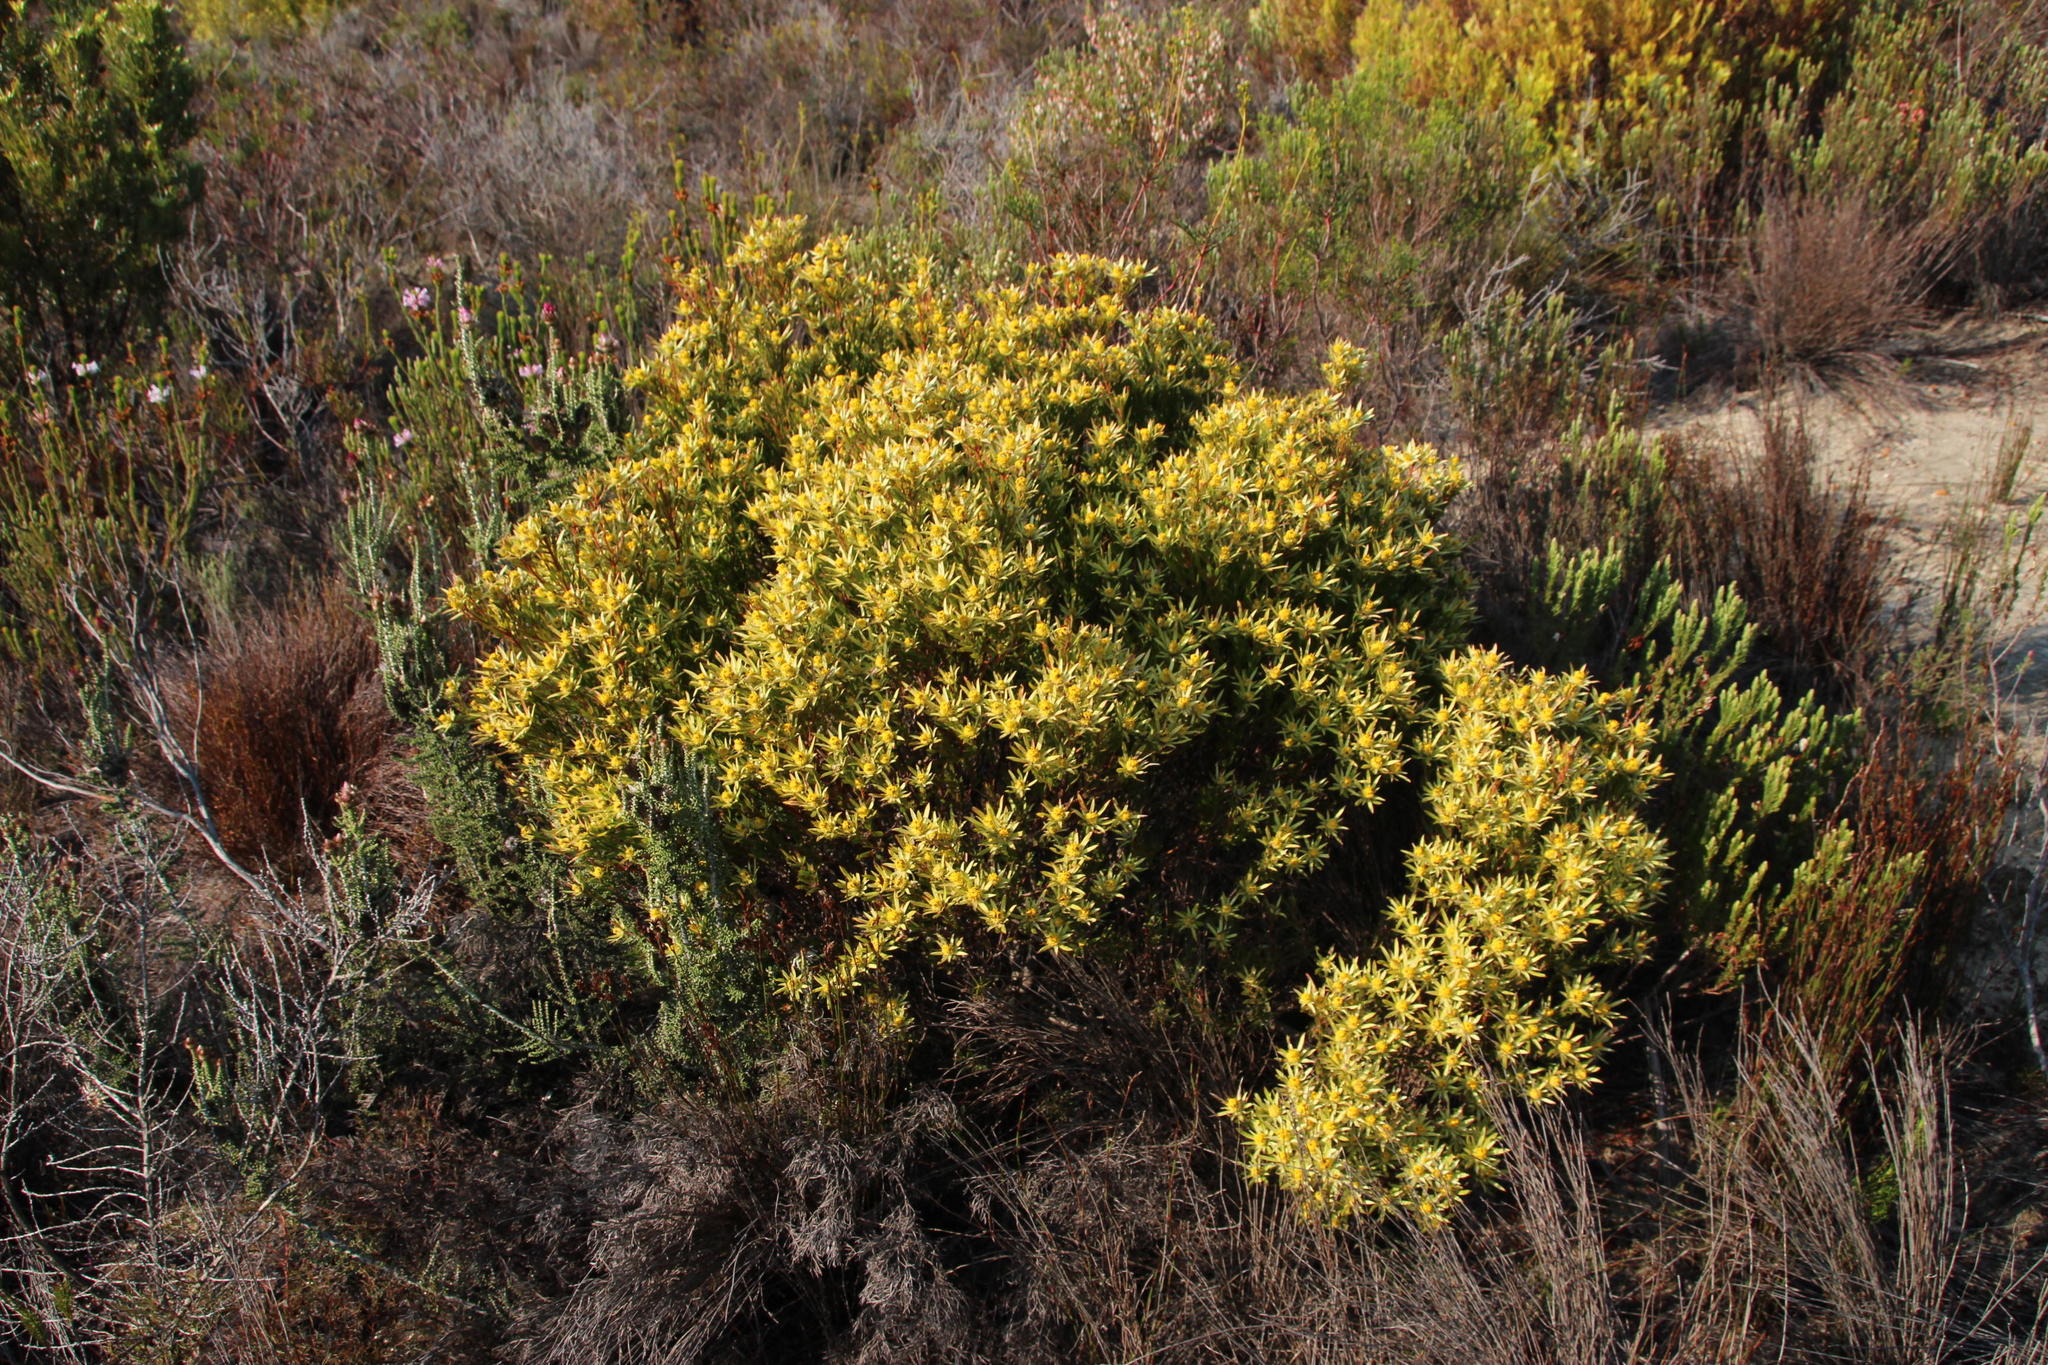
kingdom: Plantae
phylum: Tracheophyta
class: Magnoliopsida
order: Proteales
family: Proteaceae
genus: Leucadendron
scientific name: Leucadendron xanthoconus
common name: Sickle-leaf conebush
